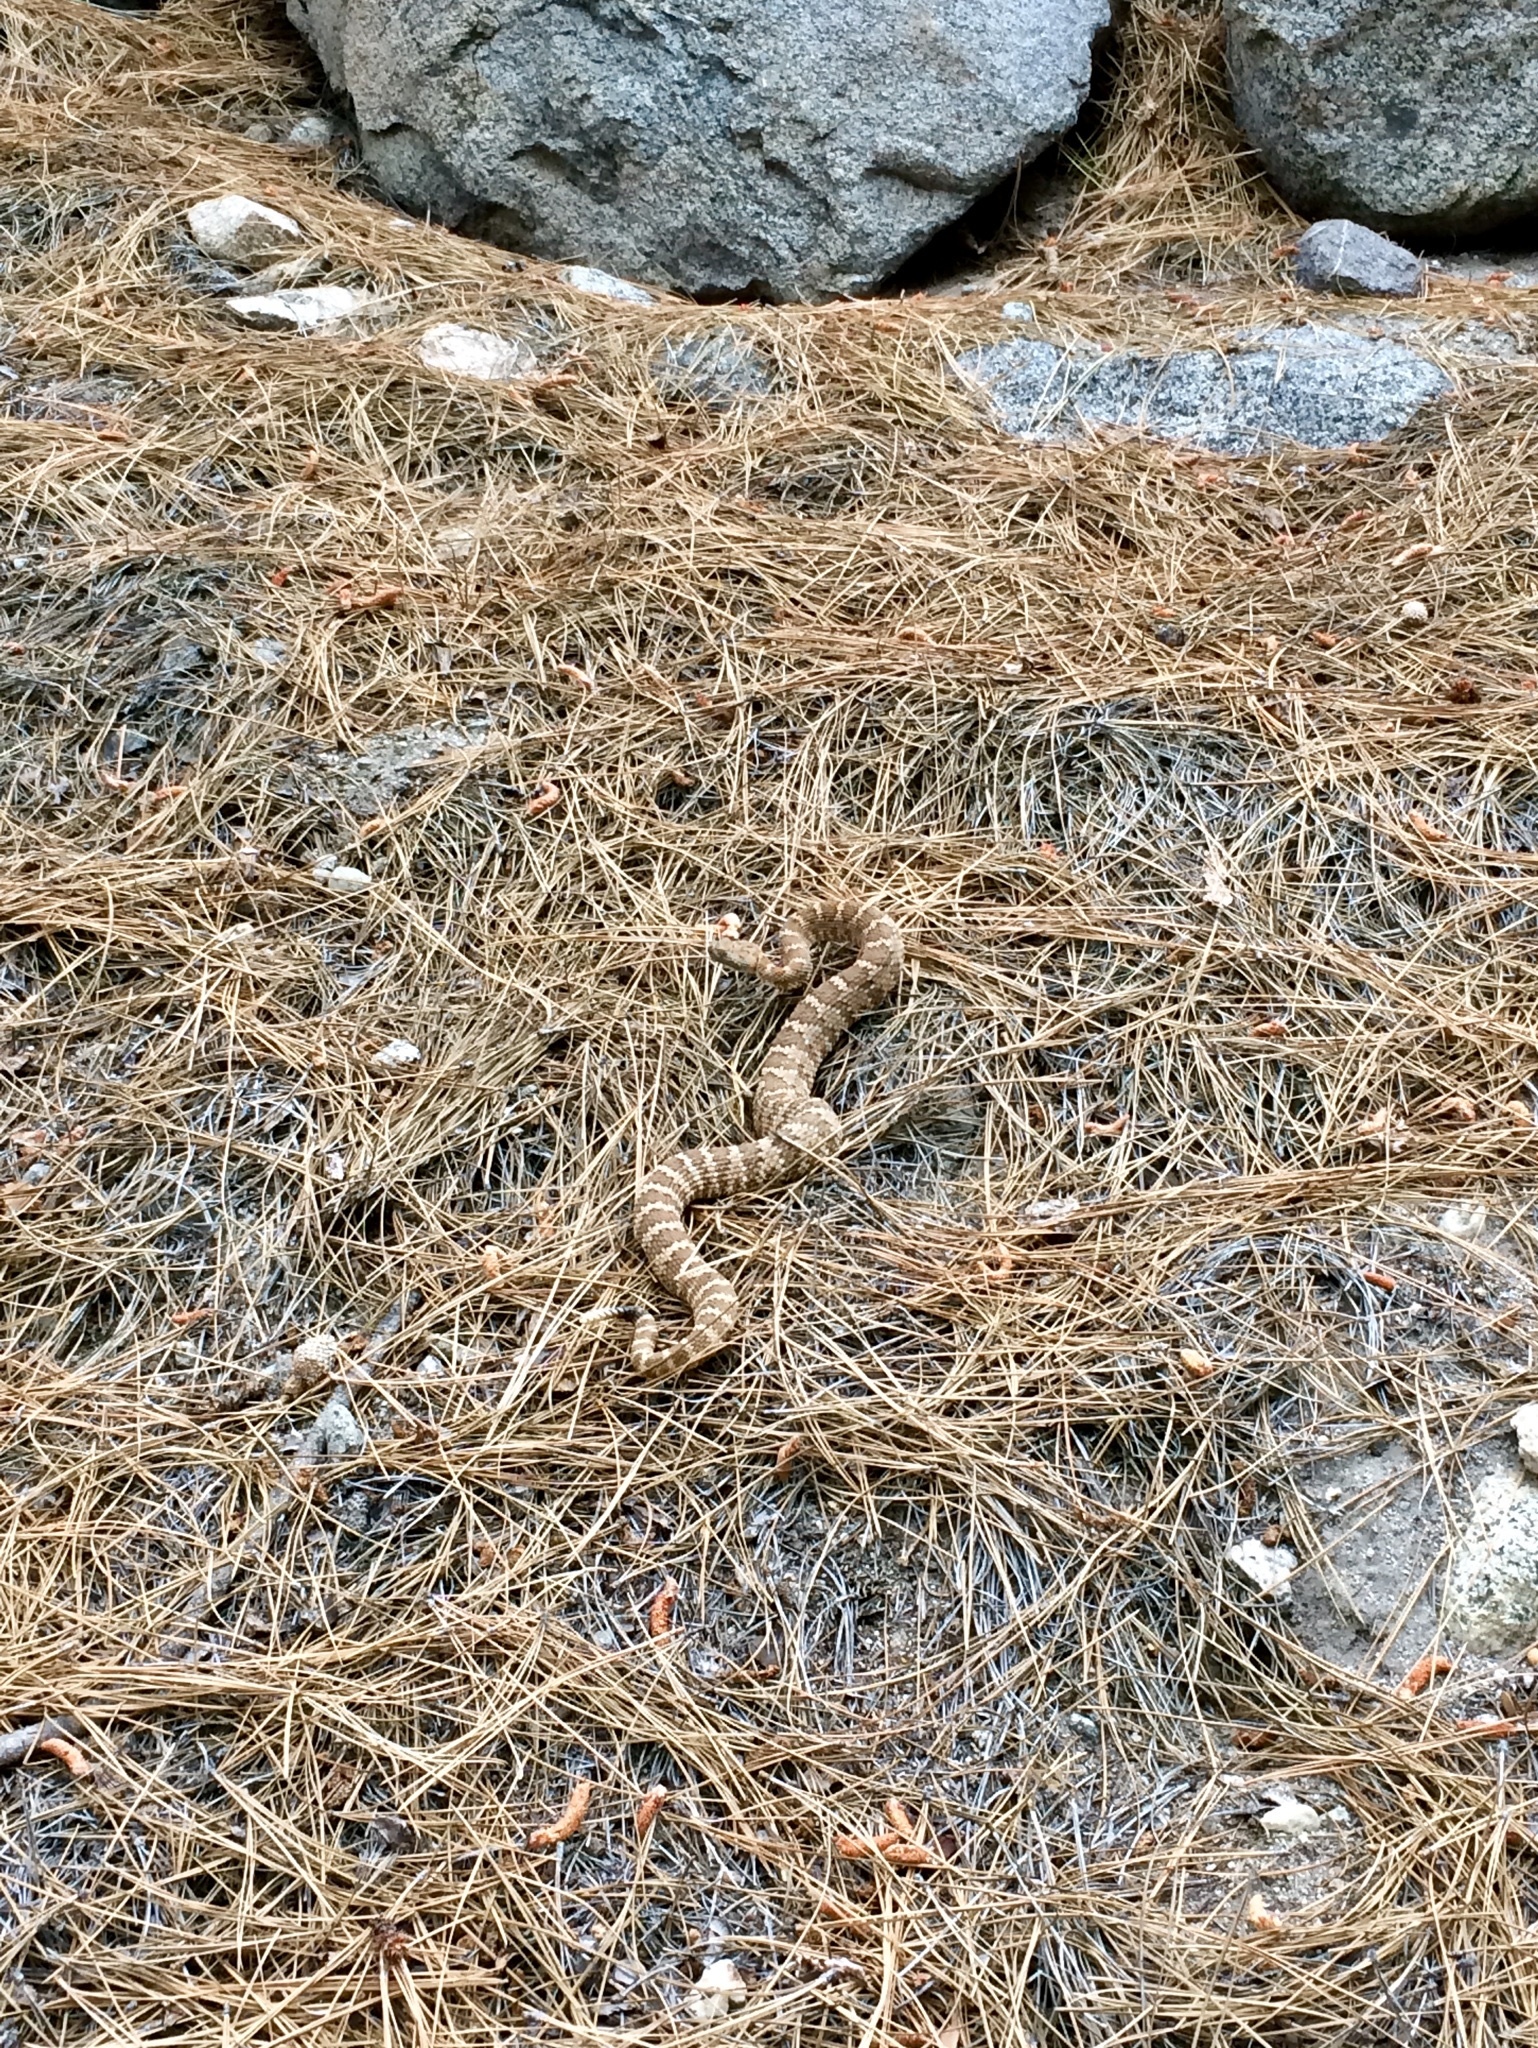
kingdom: Animalia
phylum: Chordata
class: Squamata
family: Viperidae
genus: Crotalus
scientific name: Crotalus stephensi
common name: Panamint rattlesnake
